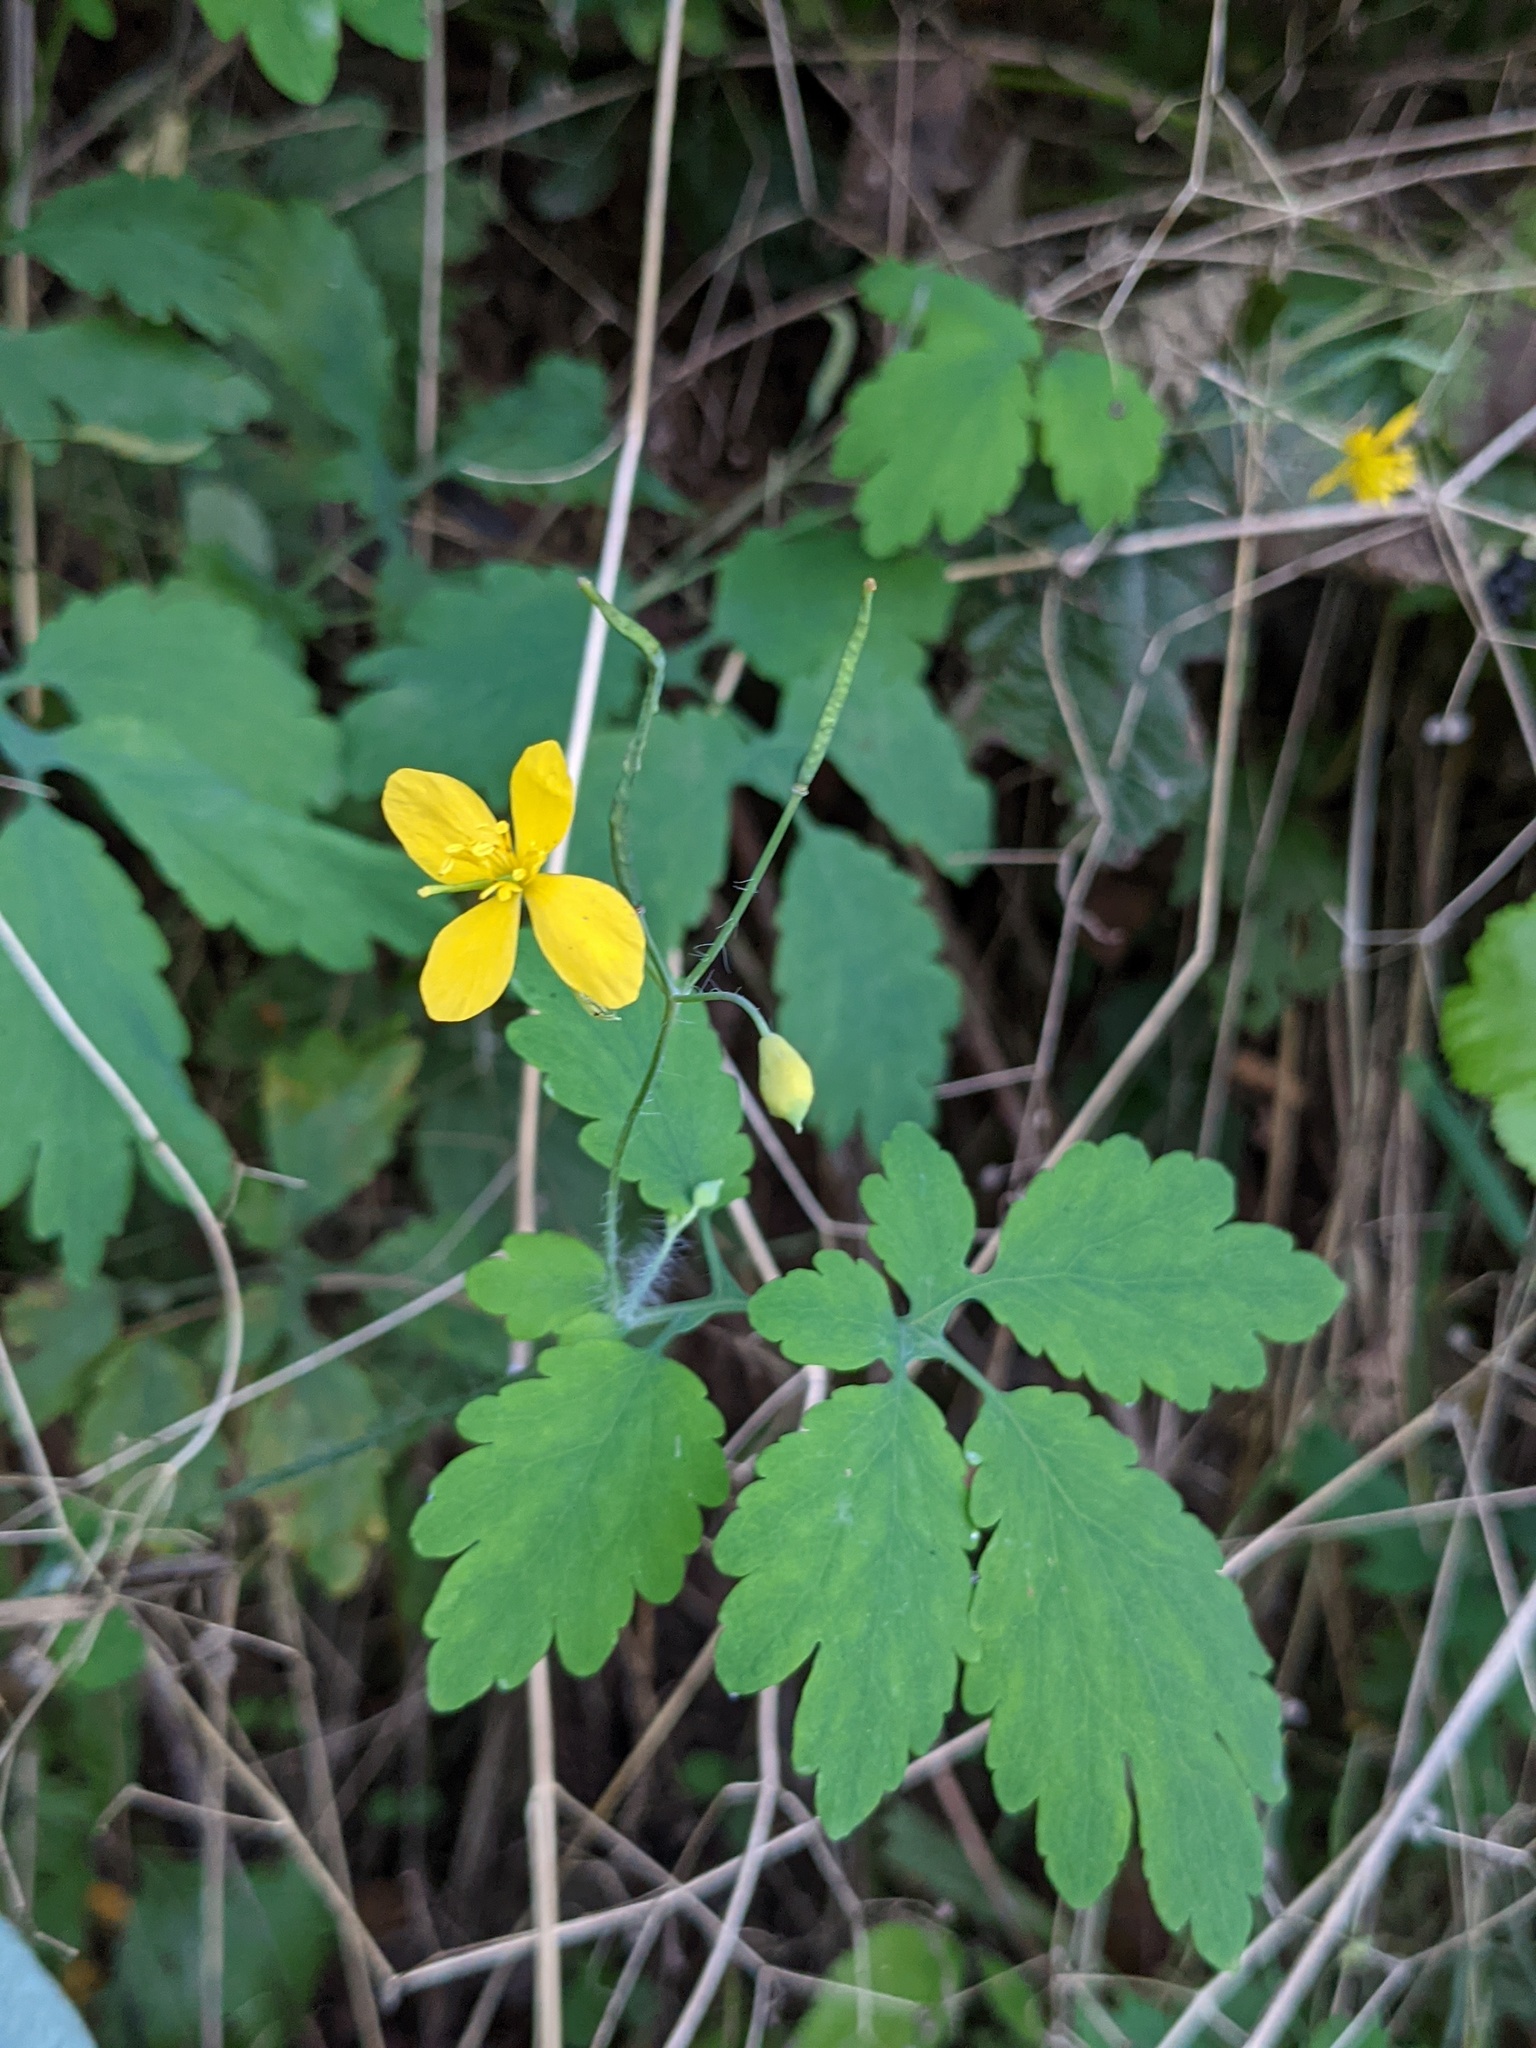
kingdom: Plantae
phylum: Tracheophyta
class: Magnoliopsida
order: Ranunculales
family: Papaveraceae
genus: Chelidonium
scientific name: Chelidonium majus
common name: Greater celandine
